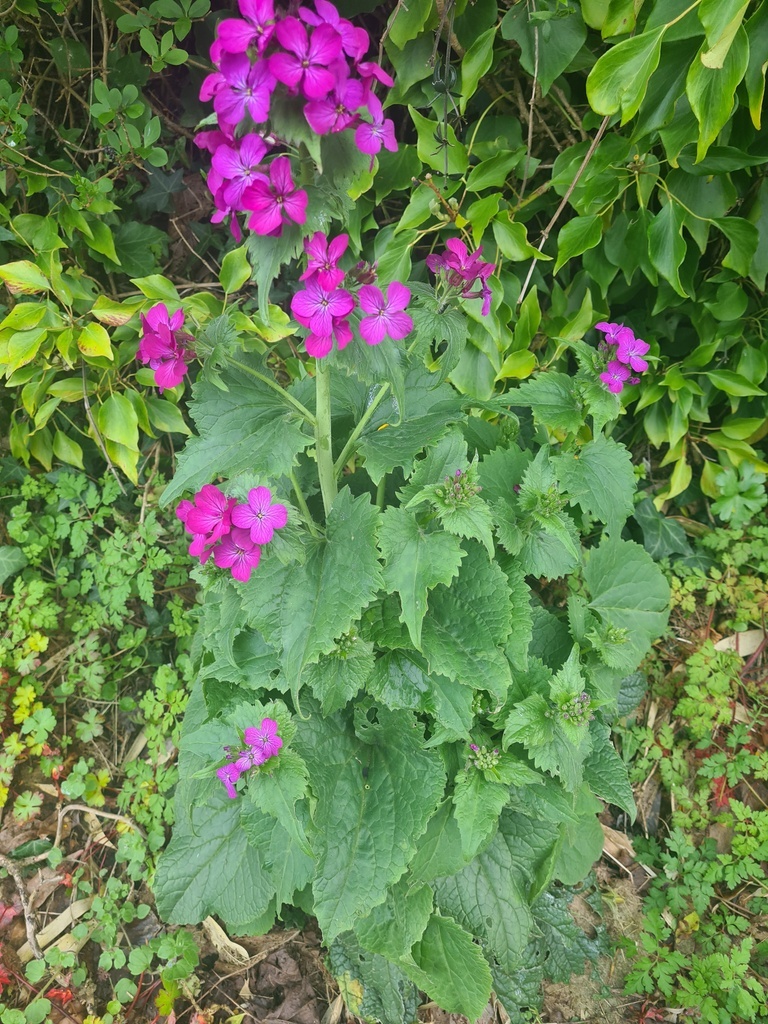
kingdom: Plantae
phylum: Tracheophyta
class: Magnoliopsida
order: Brassicales
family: Brassicaceae
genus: Lunaria
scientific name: Lunaria annua
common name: Honesty
